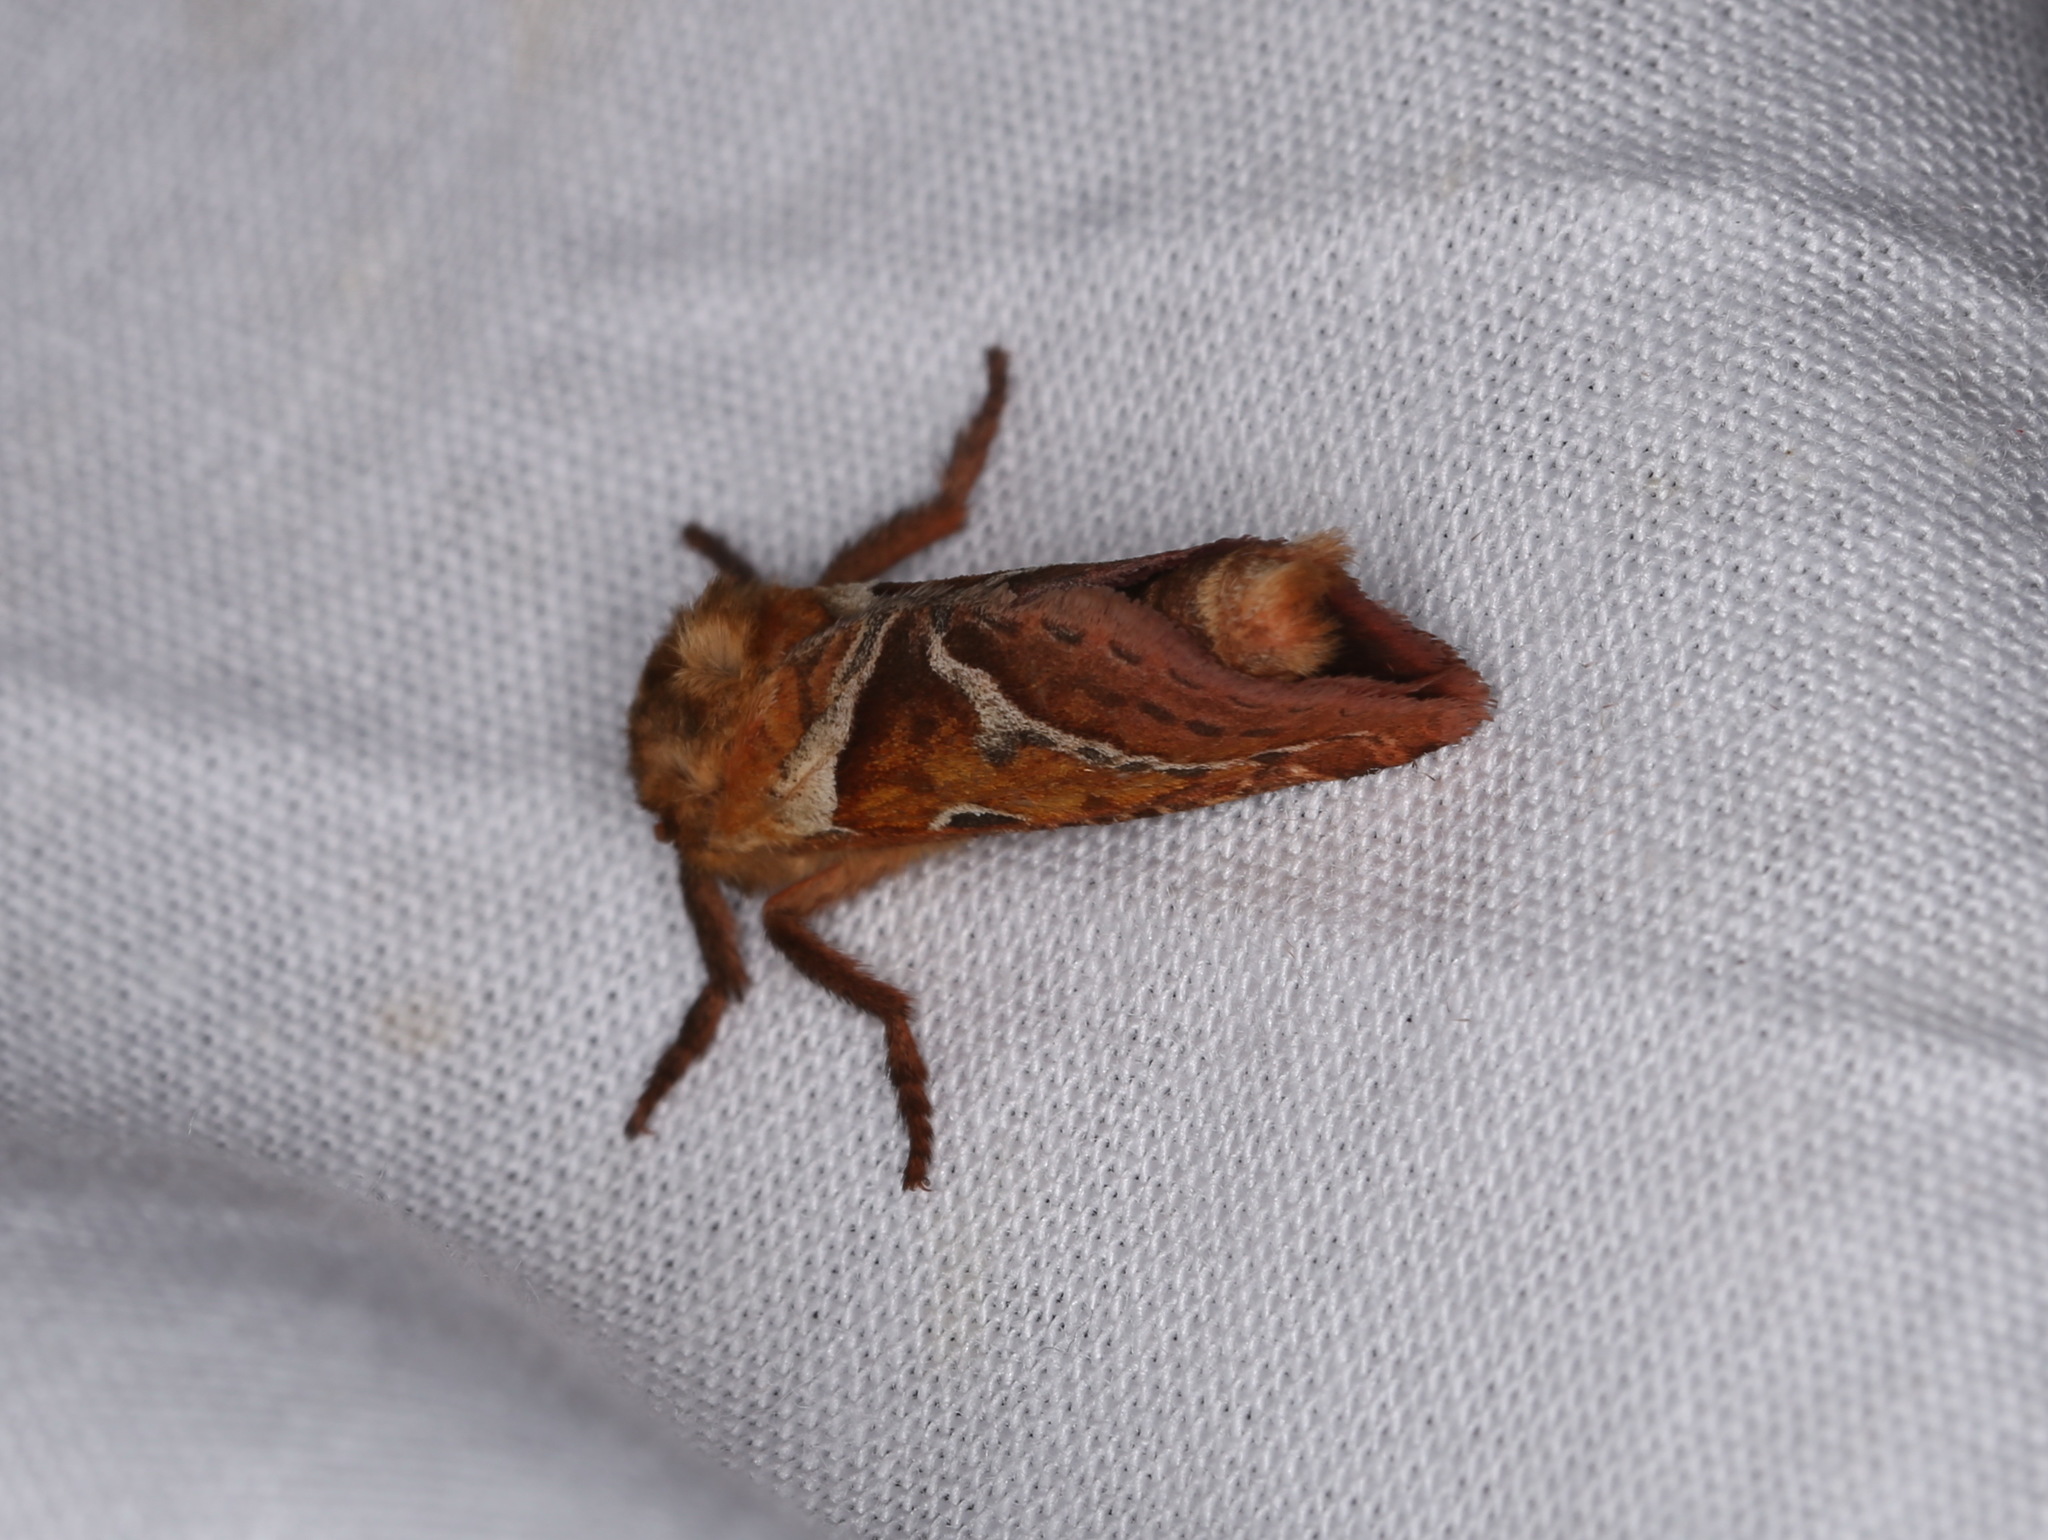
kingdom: Animalia
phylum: Arthropoda
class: Insecta
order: Lepidoptera
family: Hepialidae
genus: Triodia
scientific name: Triodia sylvina
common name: Orange swift
